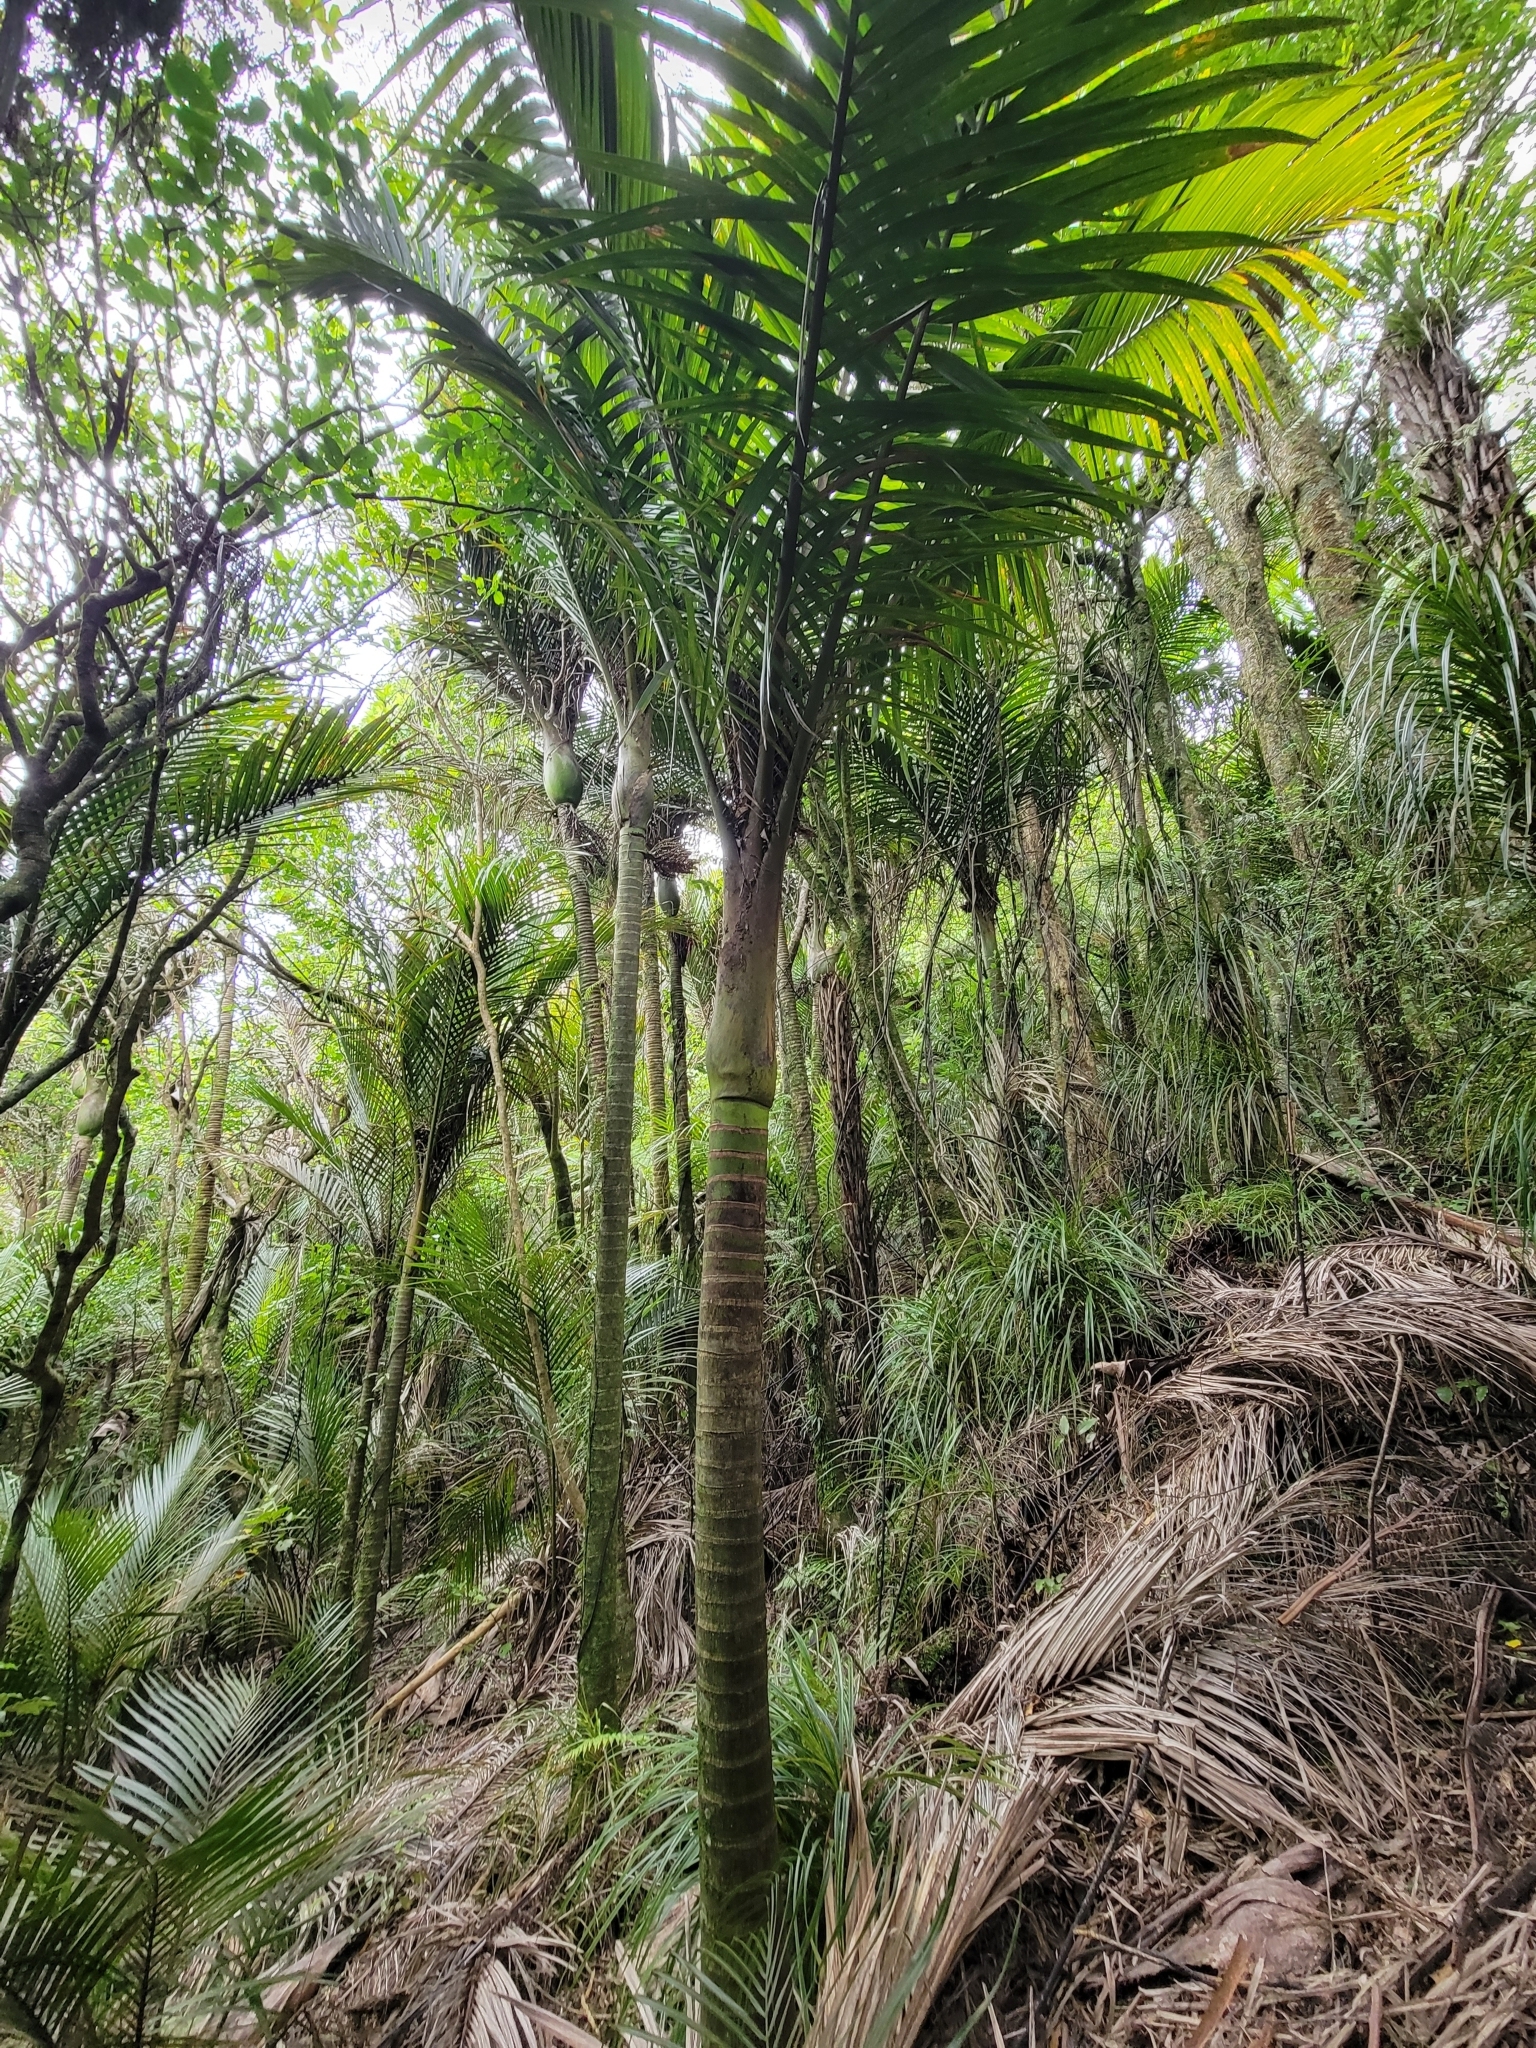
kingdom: Plantae
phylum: Tracheophyta
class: Liliopsida
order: Arecales
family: Arecaceae
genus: Rhopalostylis
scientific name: Rhopalostylis sapida
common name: Feather-duster palm
